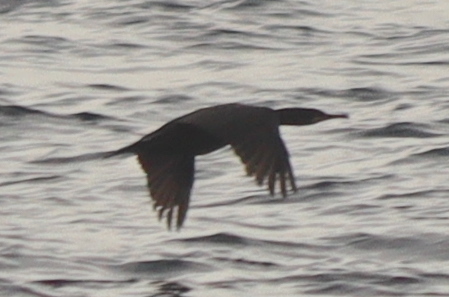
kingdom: Animalia
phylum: Chordata
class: Aves
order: Suliformes
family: Phalacrocoracidae
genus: Phalacrocorax
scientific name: Phalacrocorax aristotelis
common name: European shag
